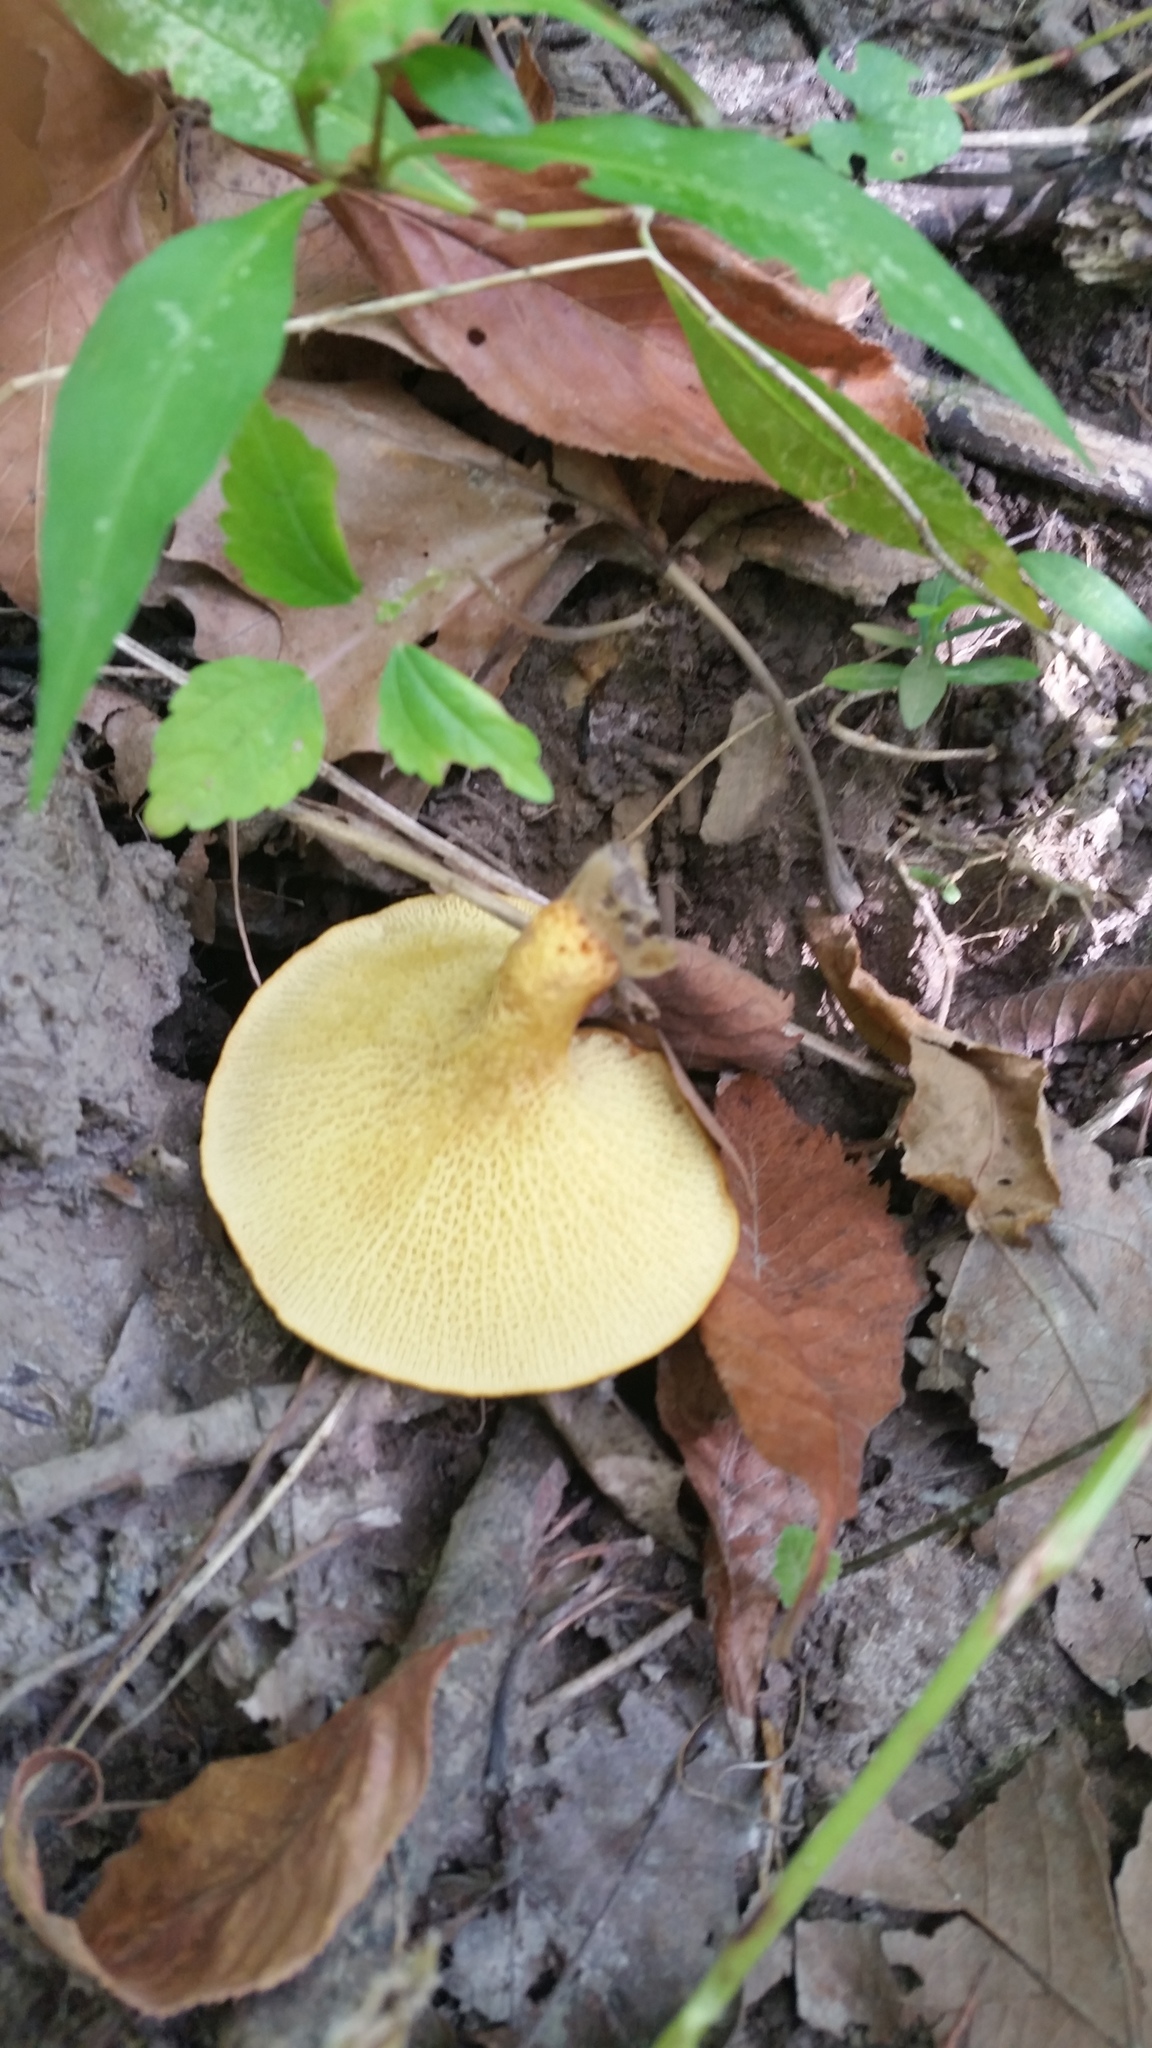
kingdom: Fungi
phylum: Basidiomycota
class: Agaricomycetes
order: Boletales
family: Boletinellaceae
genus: Boletinellus
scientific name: Boletinellus merulioides
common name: Ash tree bolete
